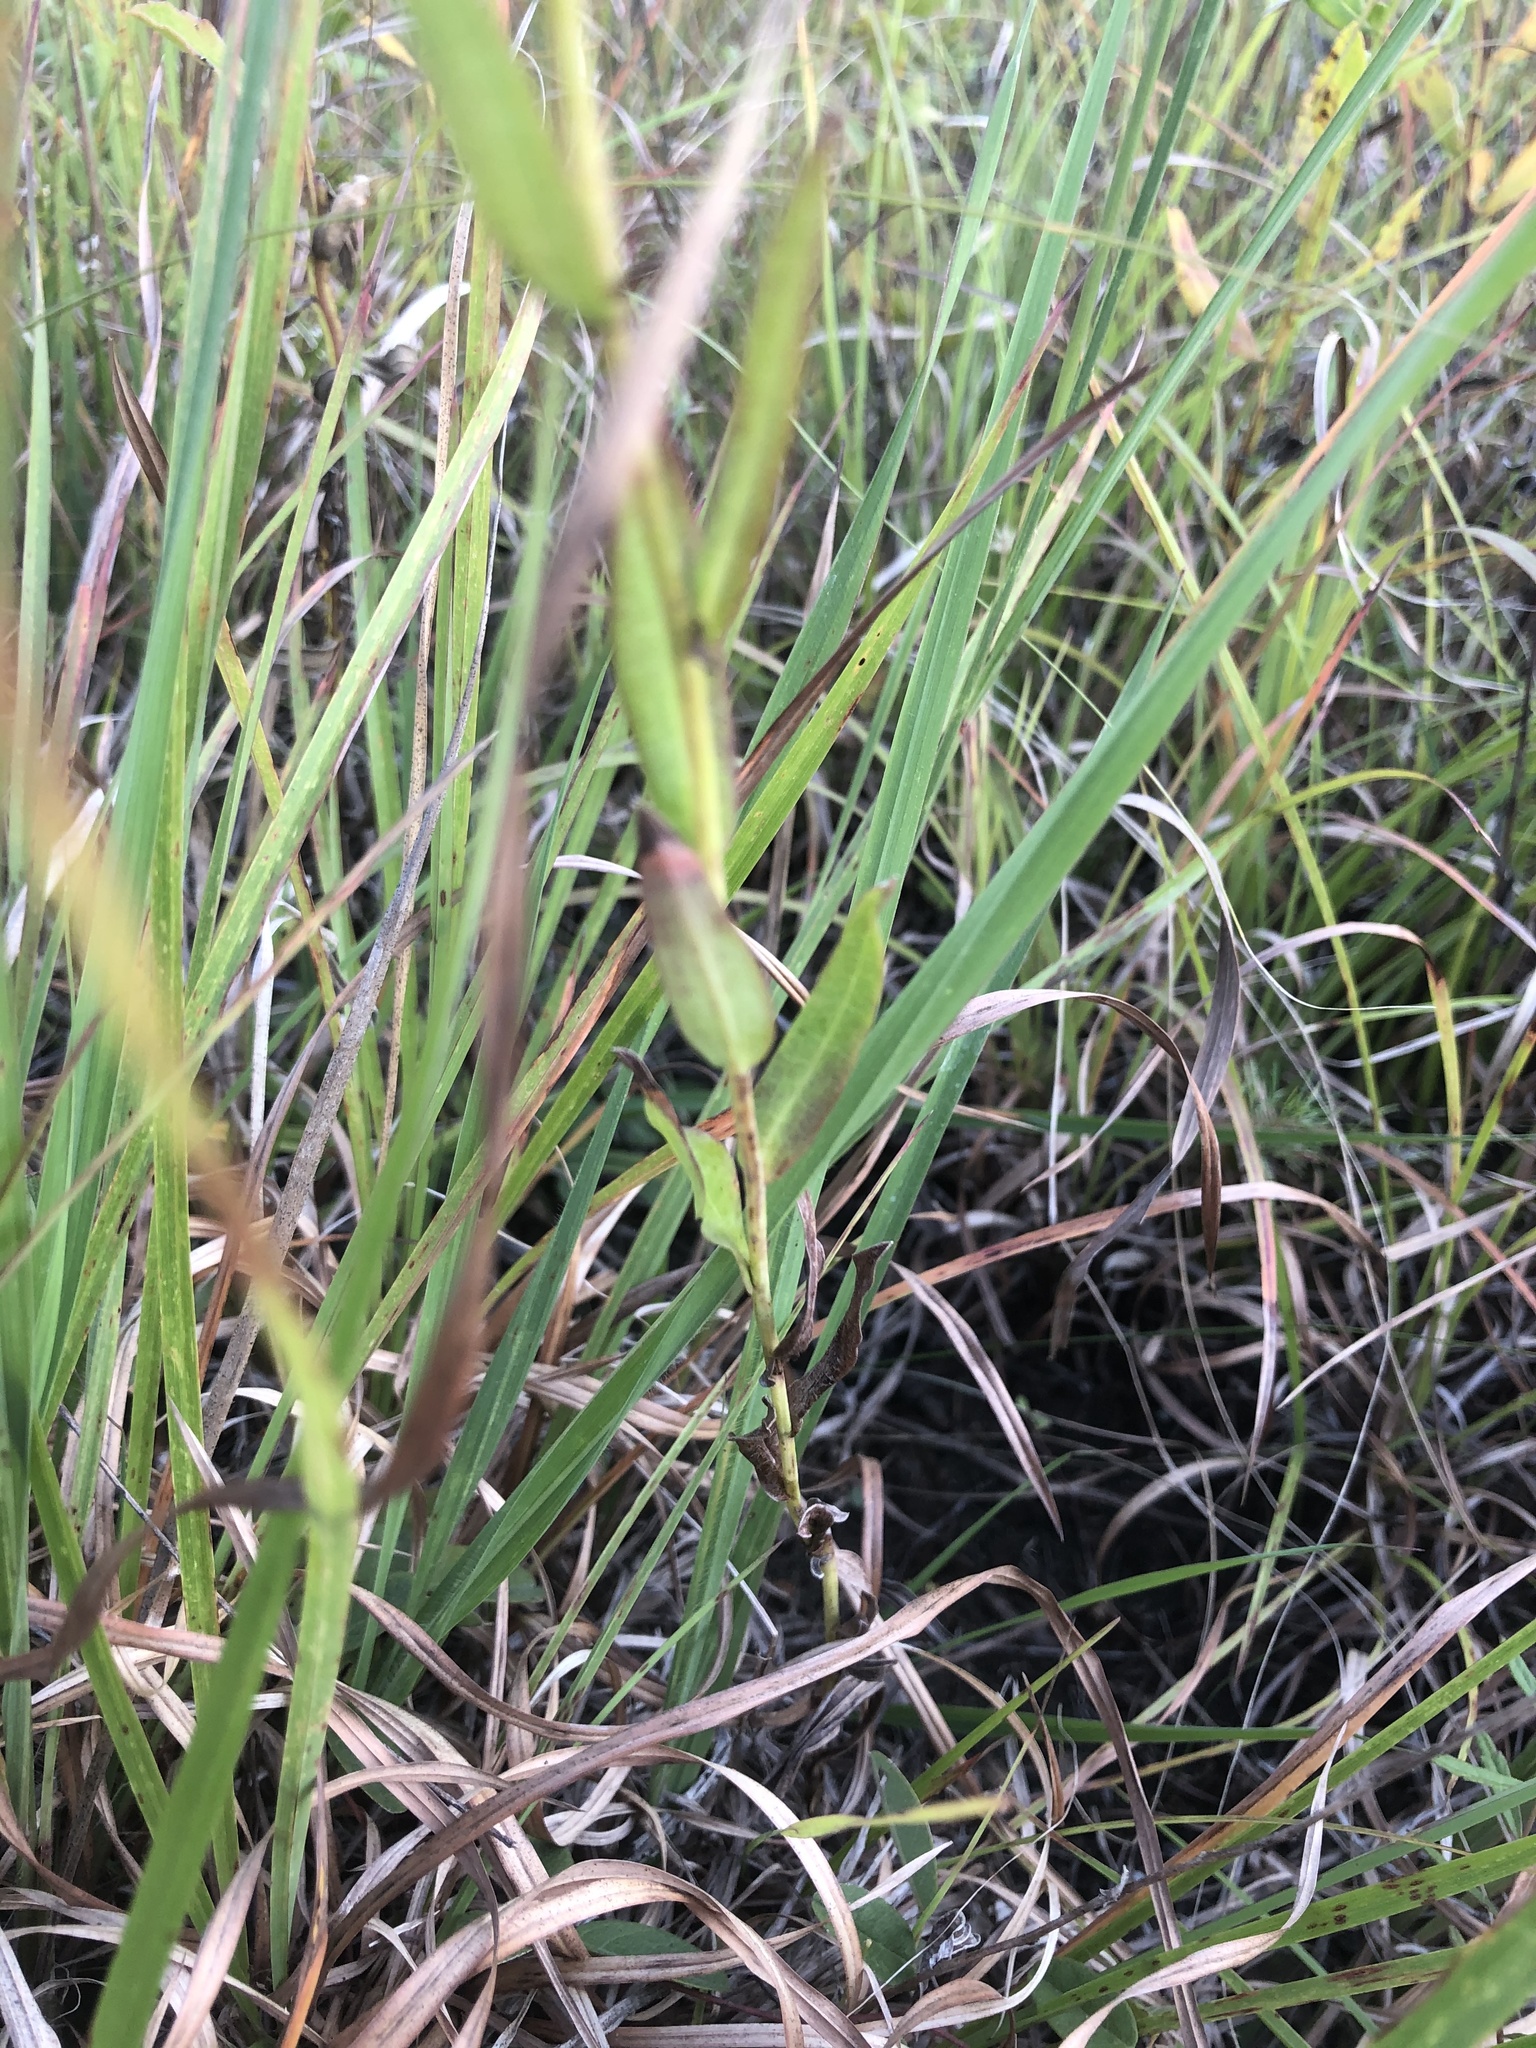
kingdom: Plantae
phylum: Tracheophyta
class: Magnoliopsida
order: Asterales
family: Asteraceae
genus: Symphyotrichum
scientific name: Symphyotrichum laeve
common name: Glaucous aster
